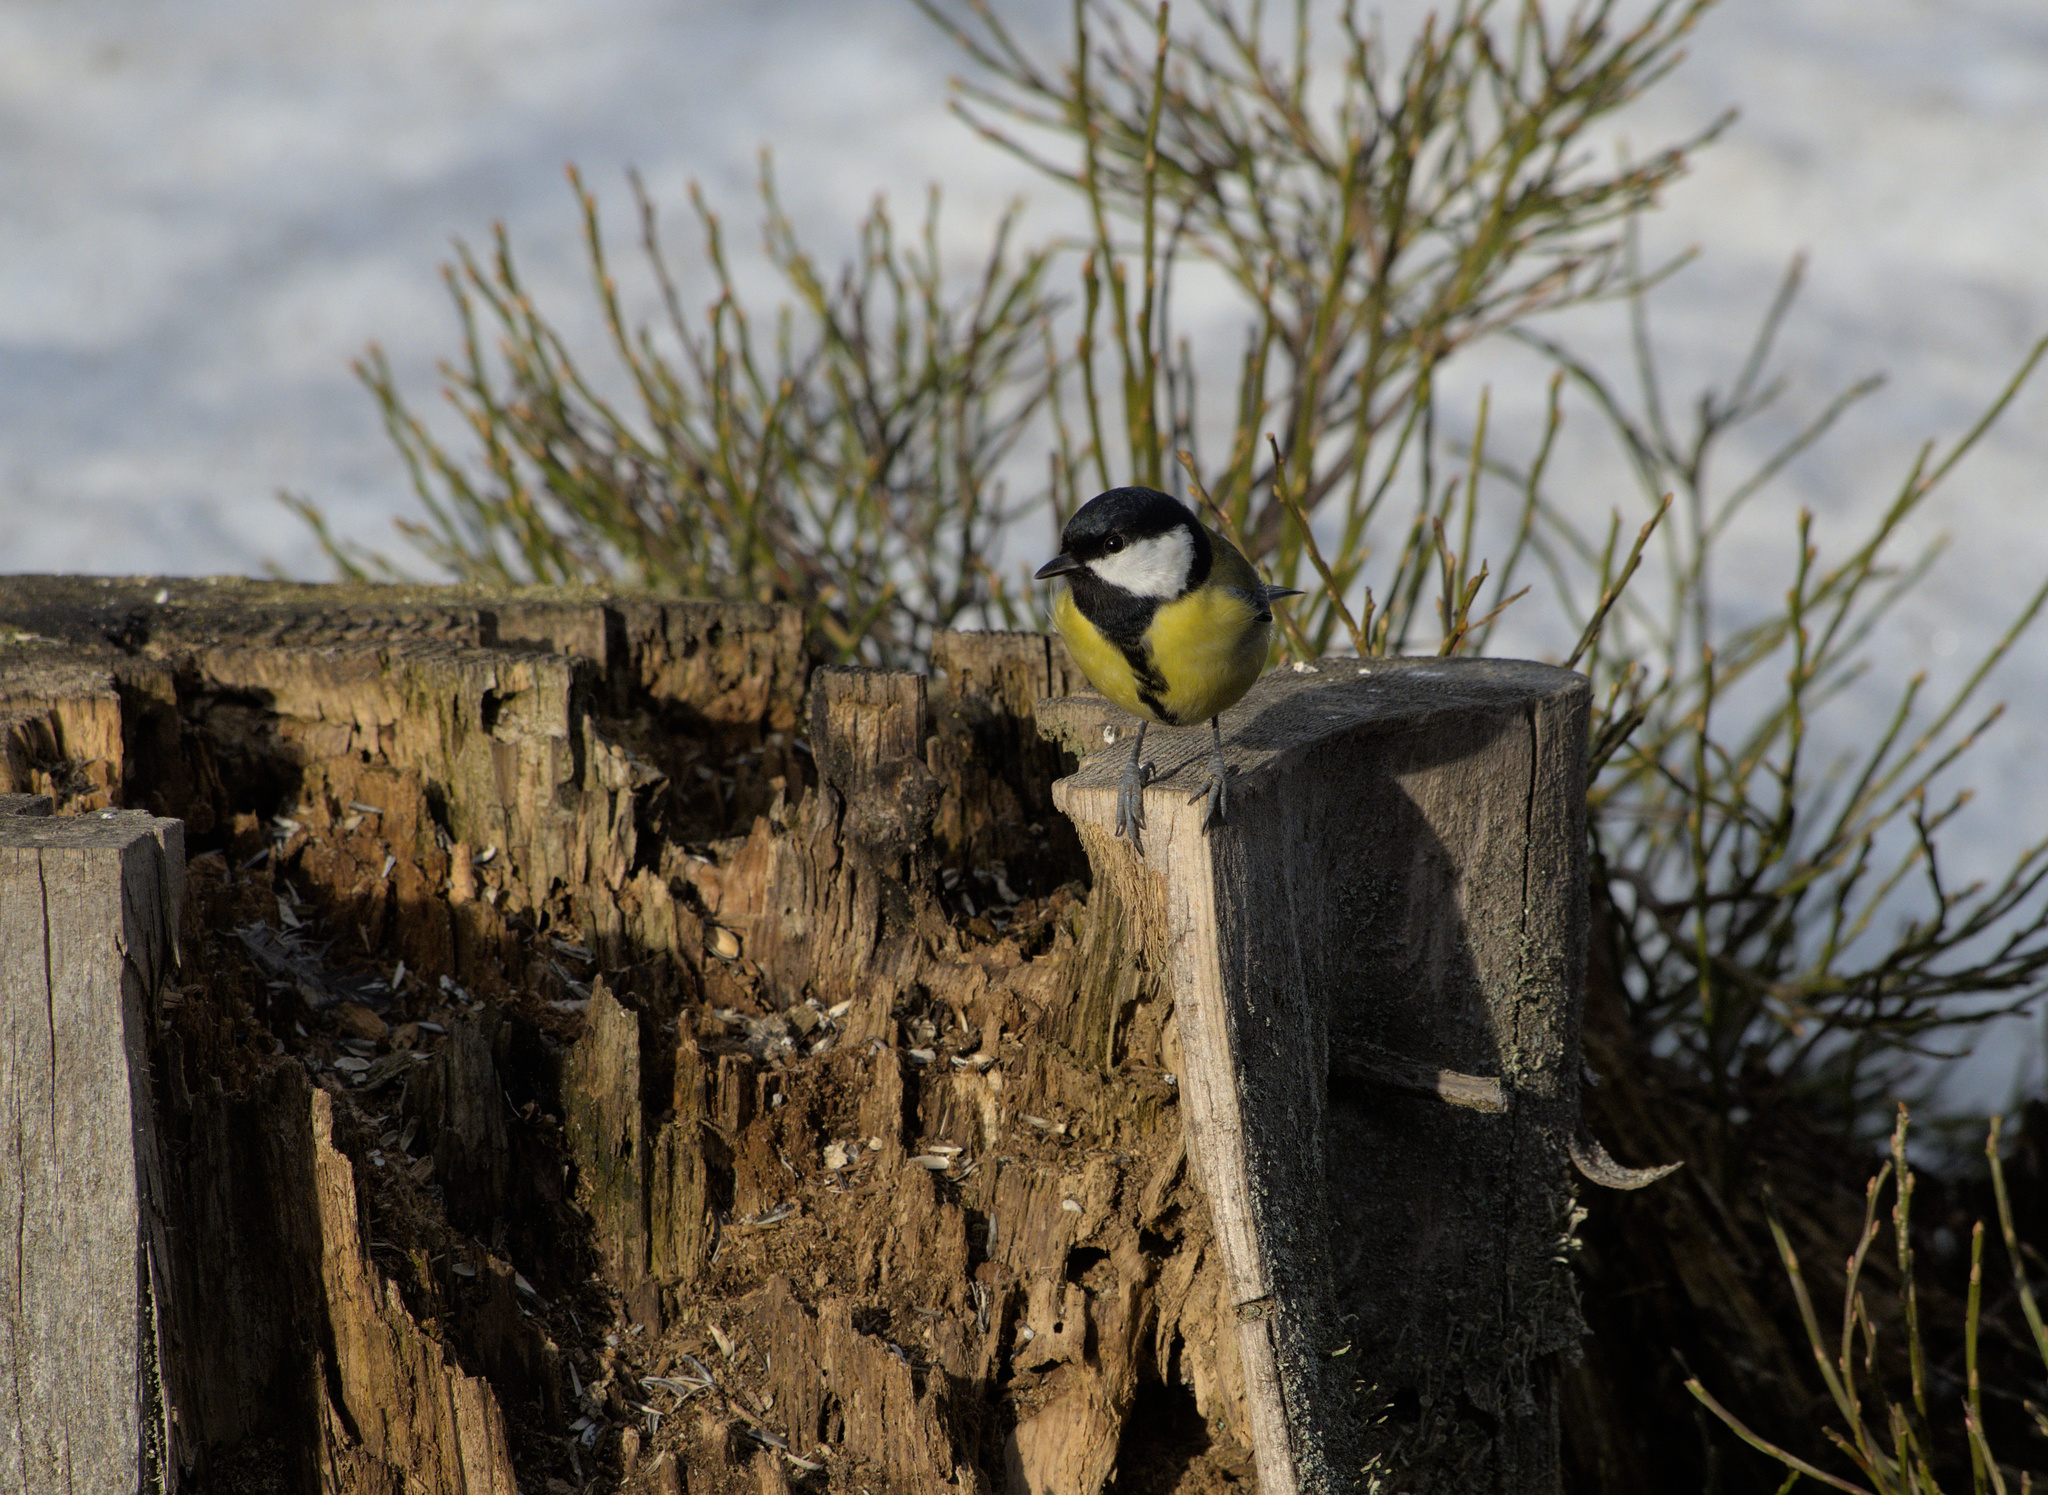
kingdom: Animalia
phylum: Chordata
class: Aves
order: Passeriformes
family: Paridae
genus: Parus
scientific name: Parus major
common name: Great tit
